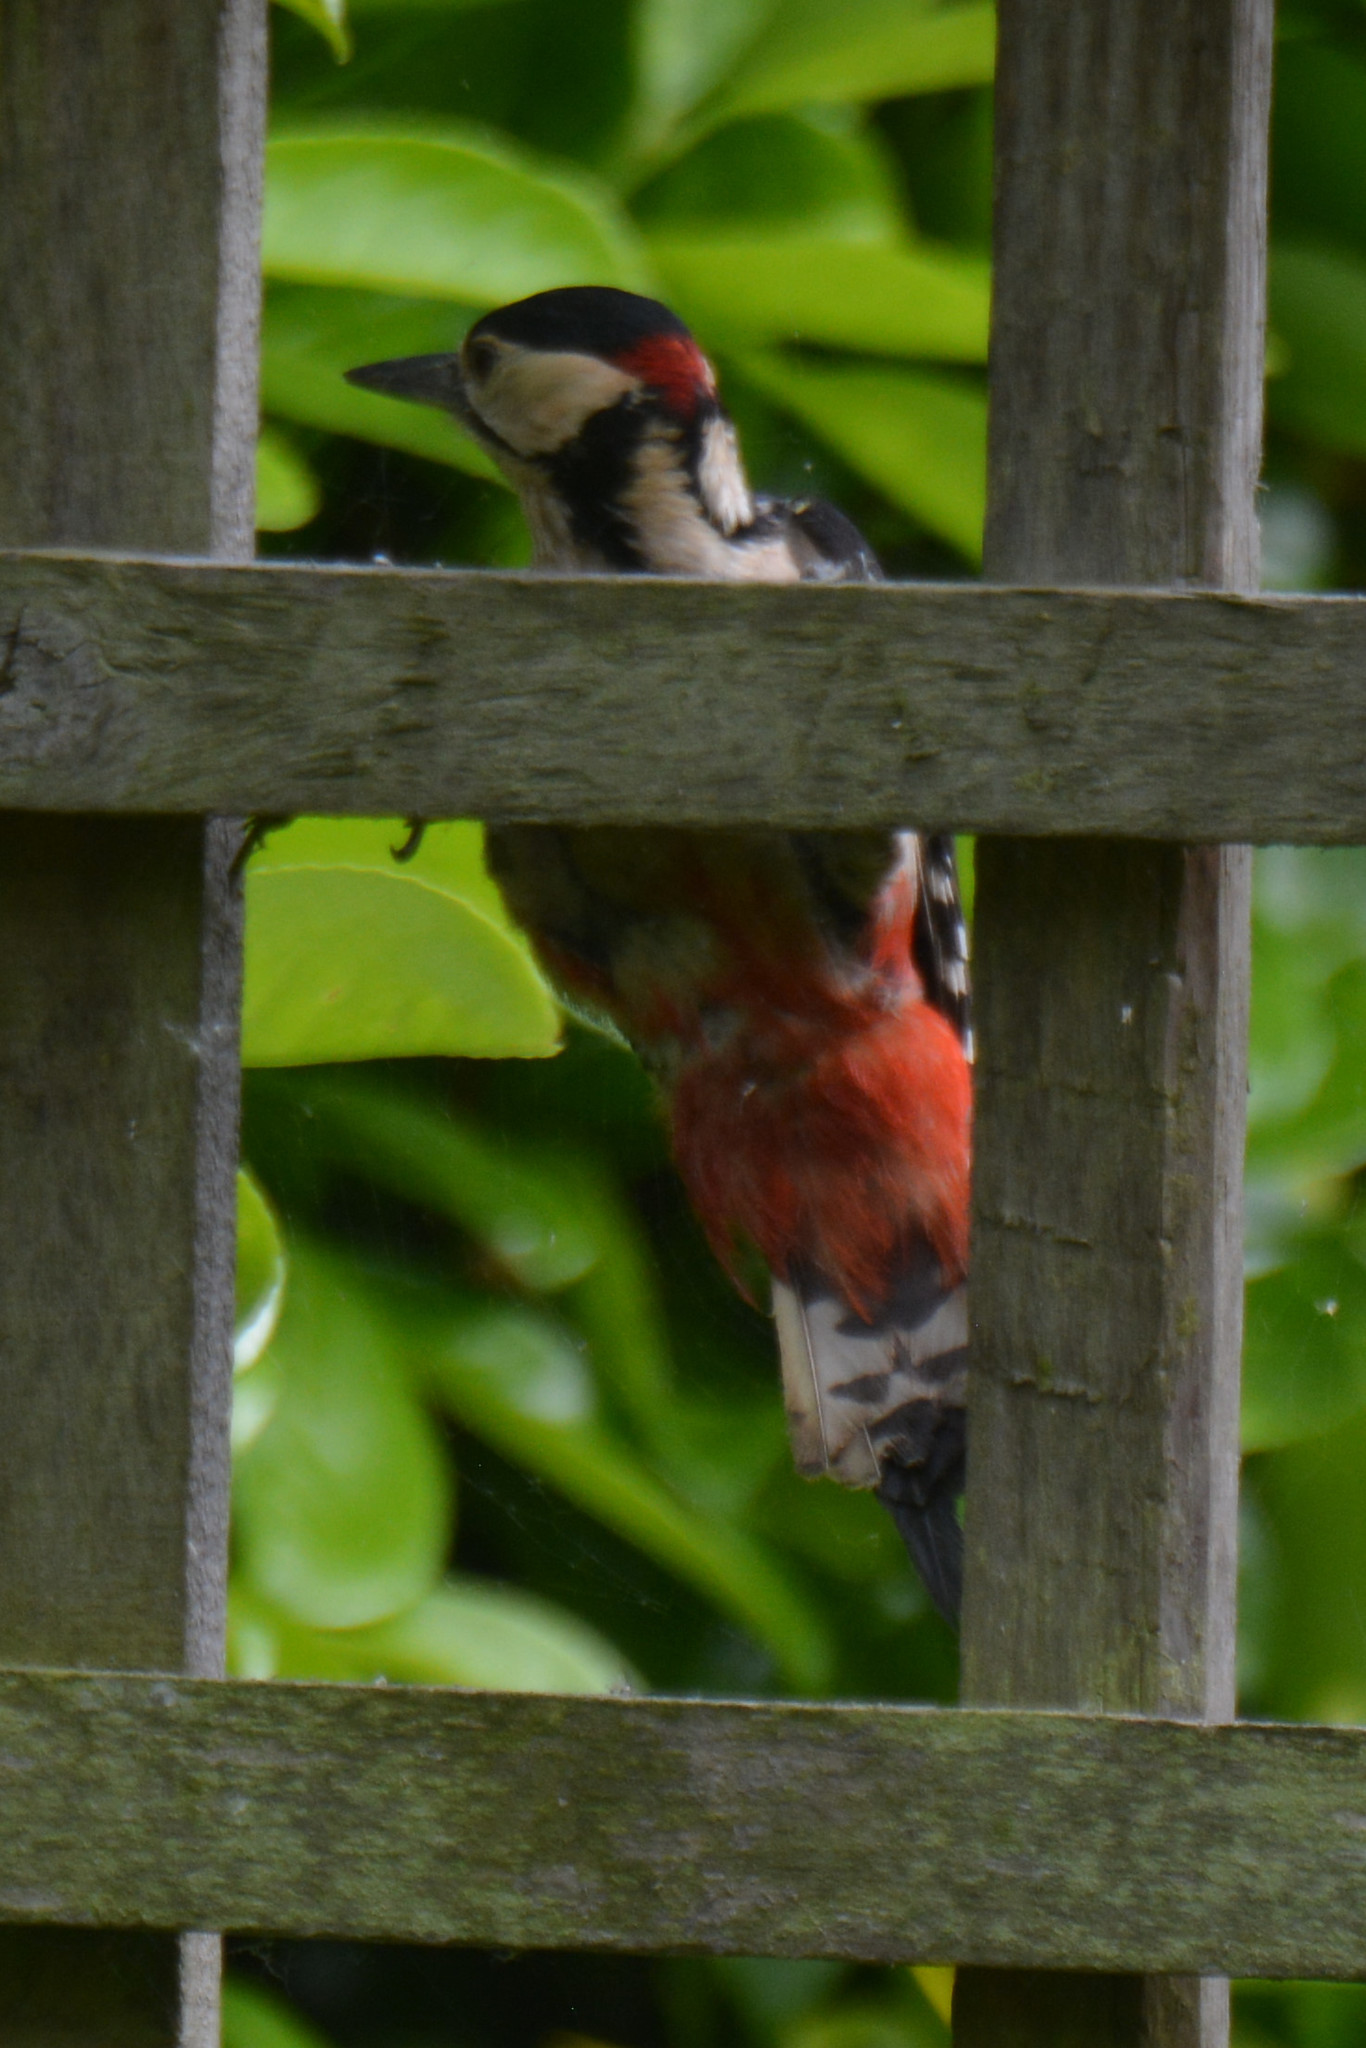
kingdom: Animalia
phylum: Chordata
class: Aves
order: Piciformes
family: Picidae
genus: Dendrocopos
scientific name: Dendrocopos major
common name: Great spotted woodpecker
